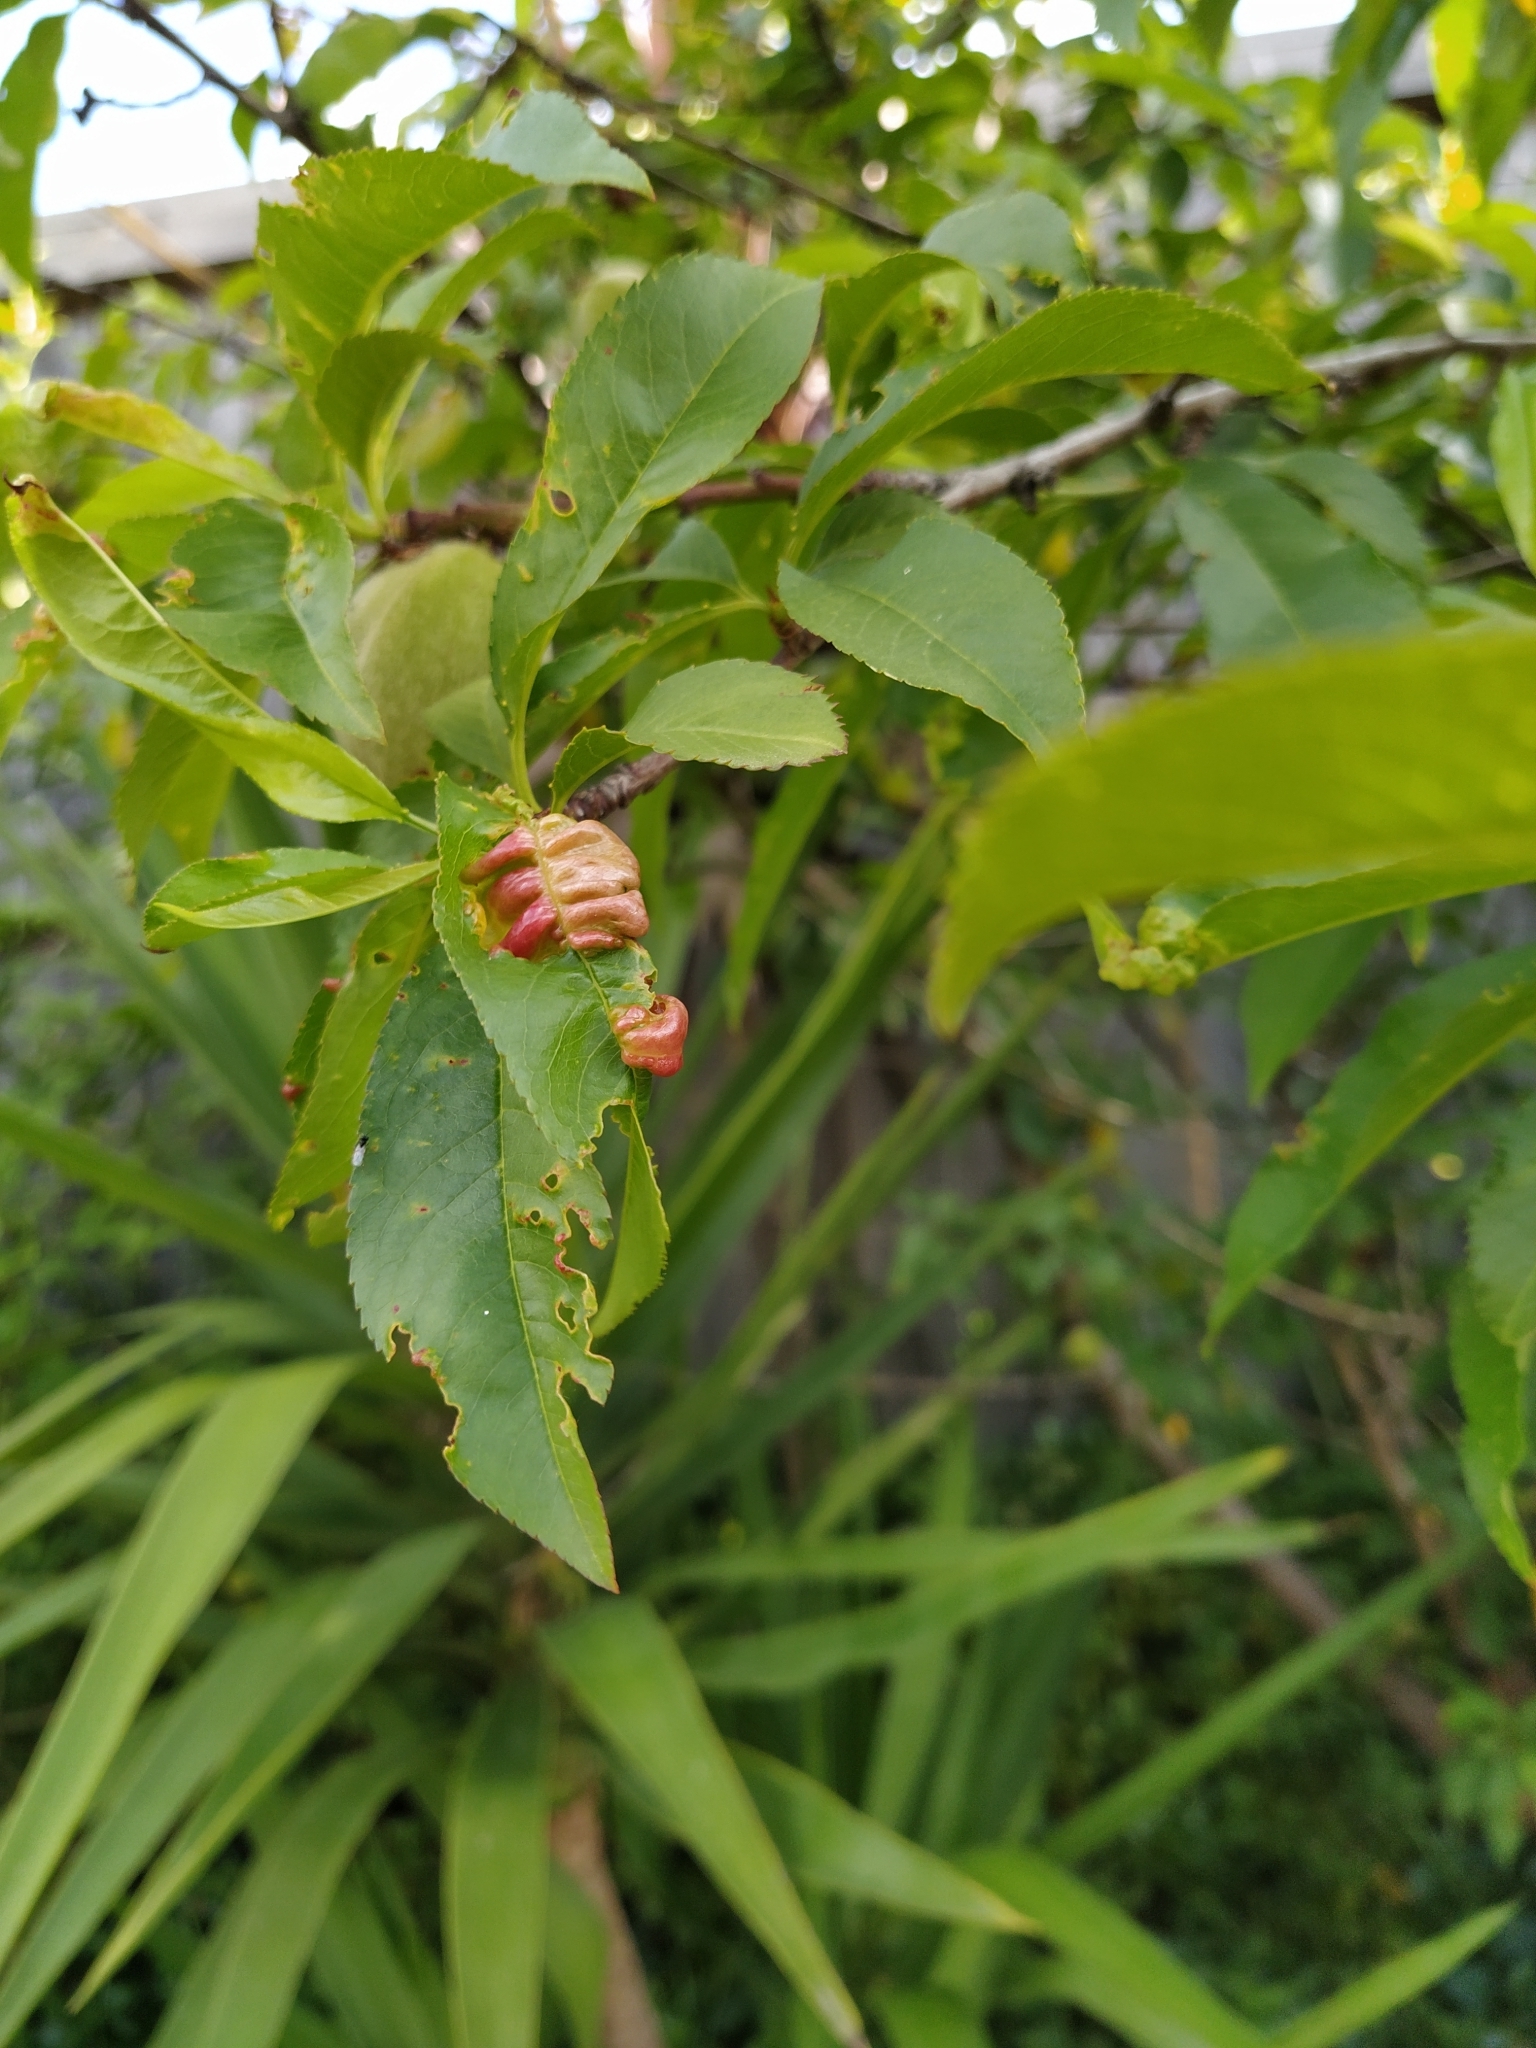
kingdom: Fungi
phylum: Ascomycota
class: Taphrinomycetes
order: Taphrinales
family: Taphrinaceae
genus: Taphrina
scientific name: Taphrina deformans
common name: Peach leaf curl
